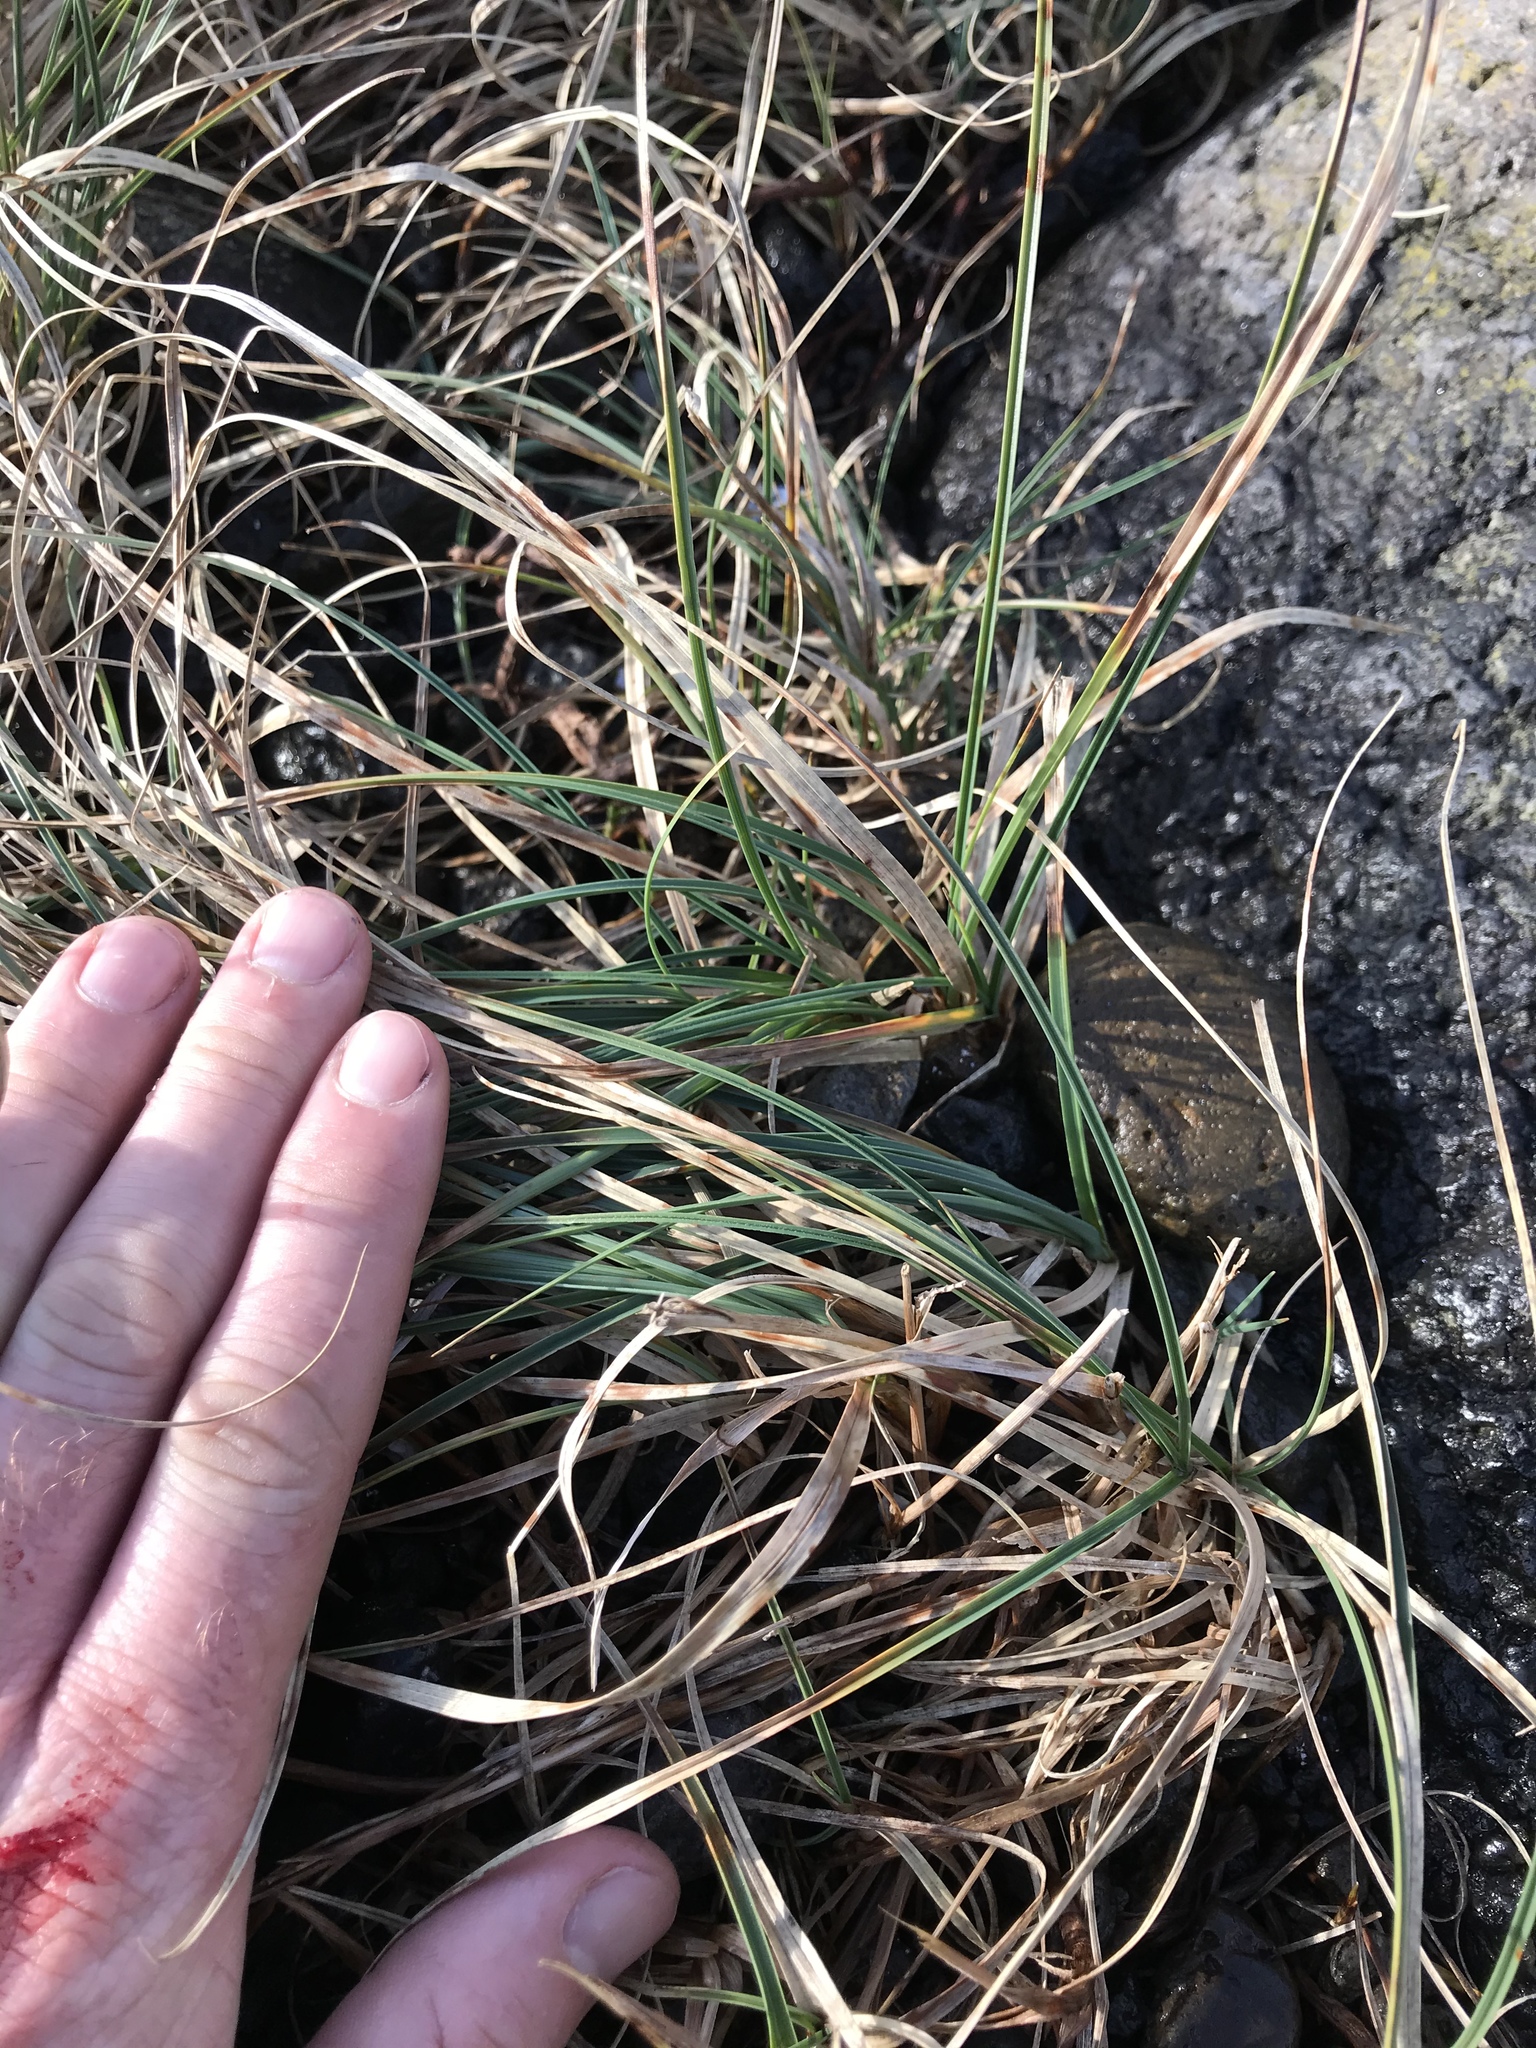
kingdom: Plantae
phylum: Tracheophyta
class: Liliopsida
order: Poales
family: Cyperaceae
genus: Carex
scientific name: Carex pumila
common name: Dwarf sedge
